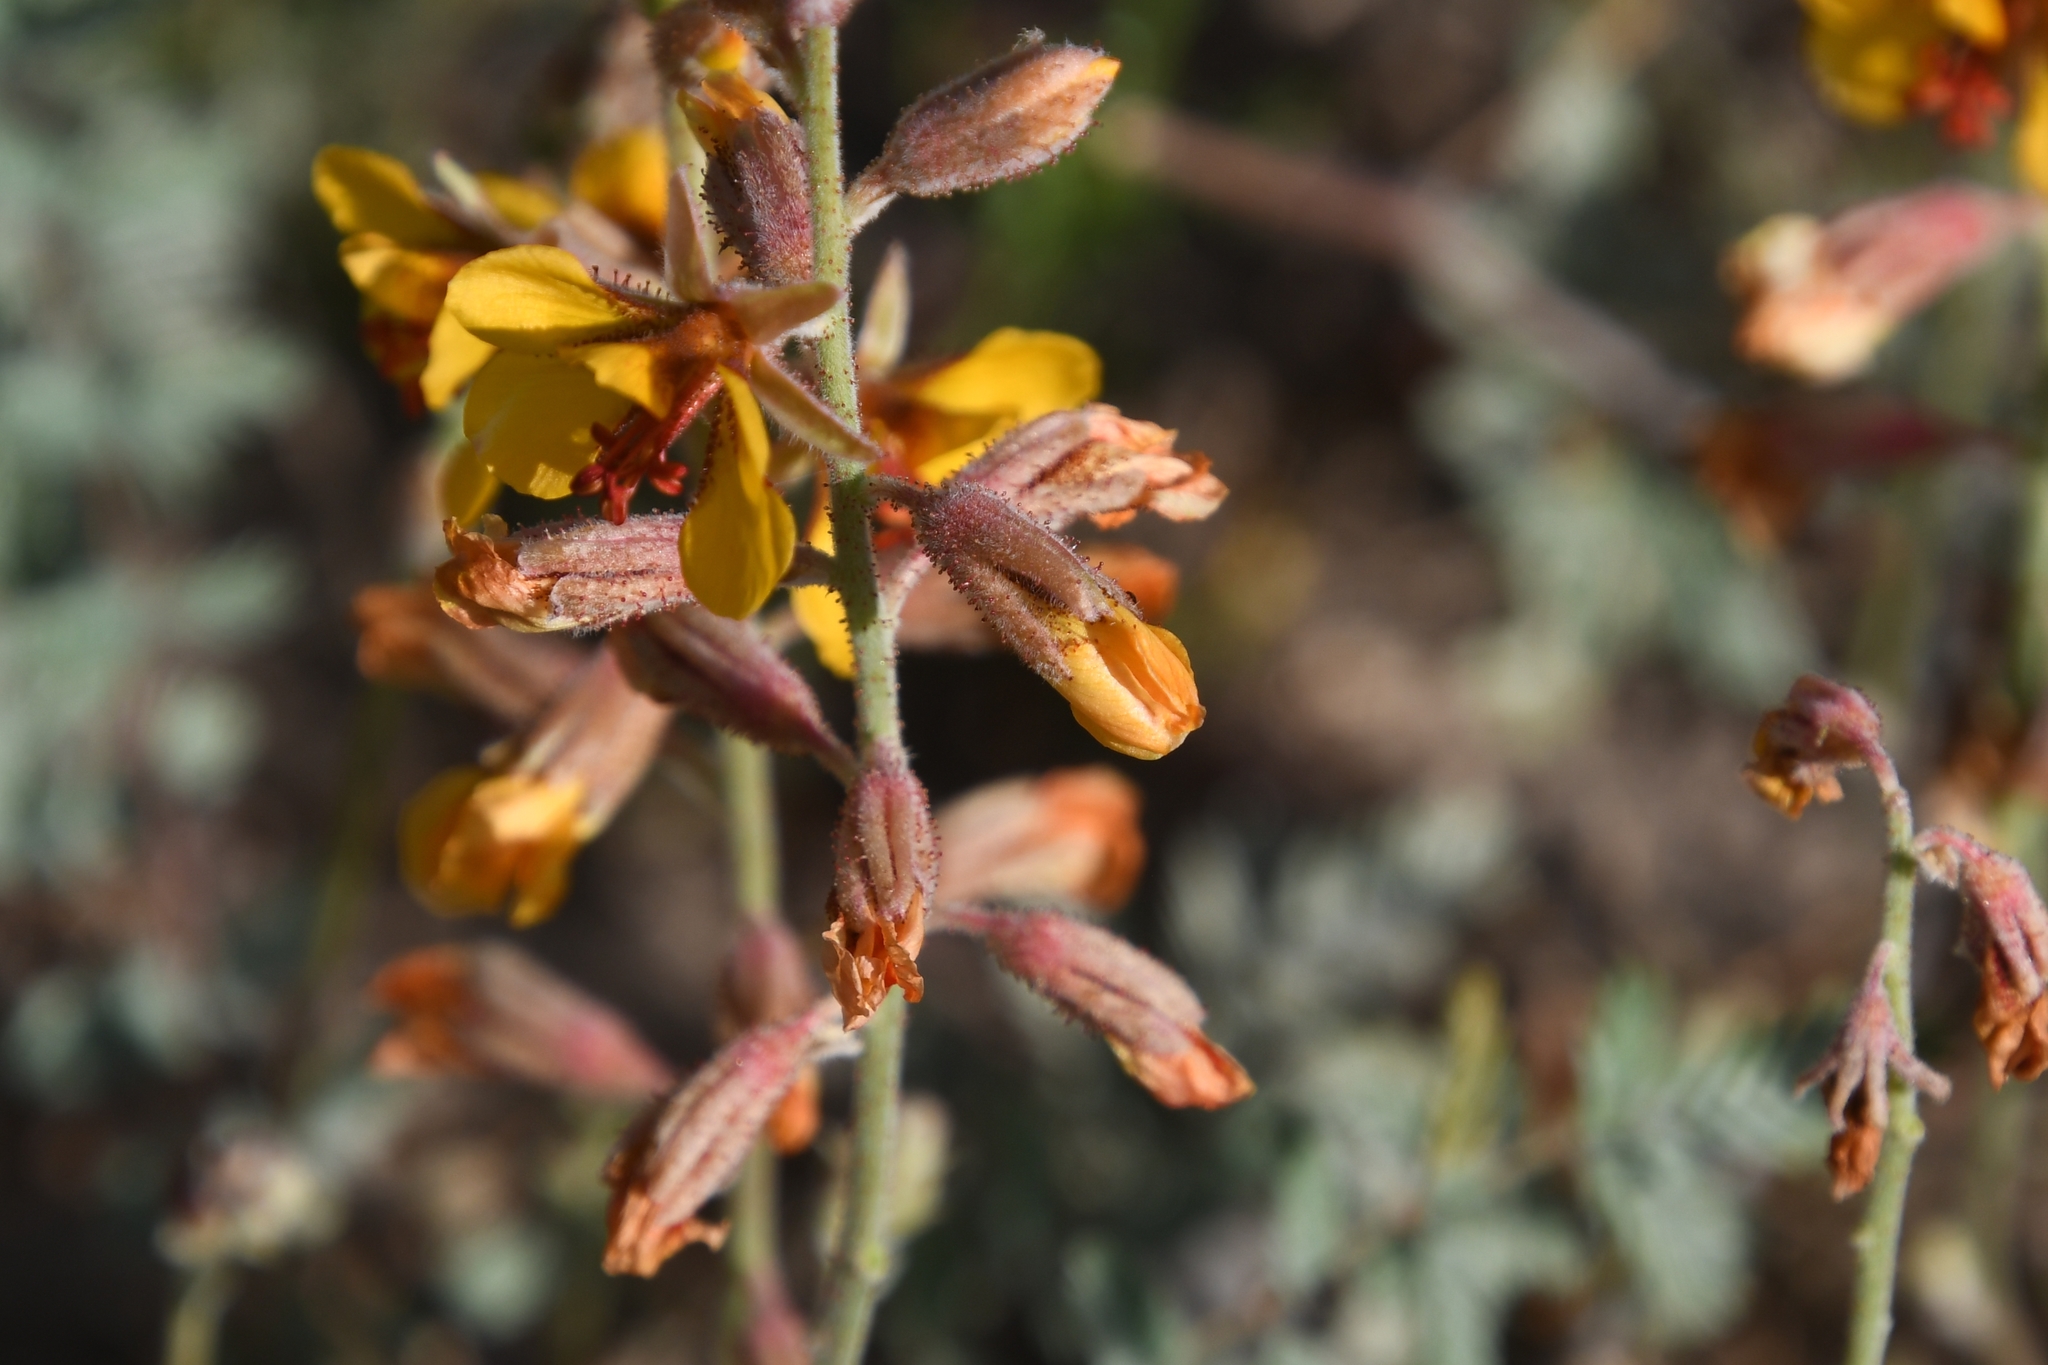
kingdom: Plantae
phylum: Tracheophyta
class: Magnoliopsida
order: Fabales
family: Fabaceae
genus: Hoffmannseggia
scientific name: Hoffmannseggia glauca
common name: Pignut
